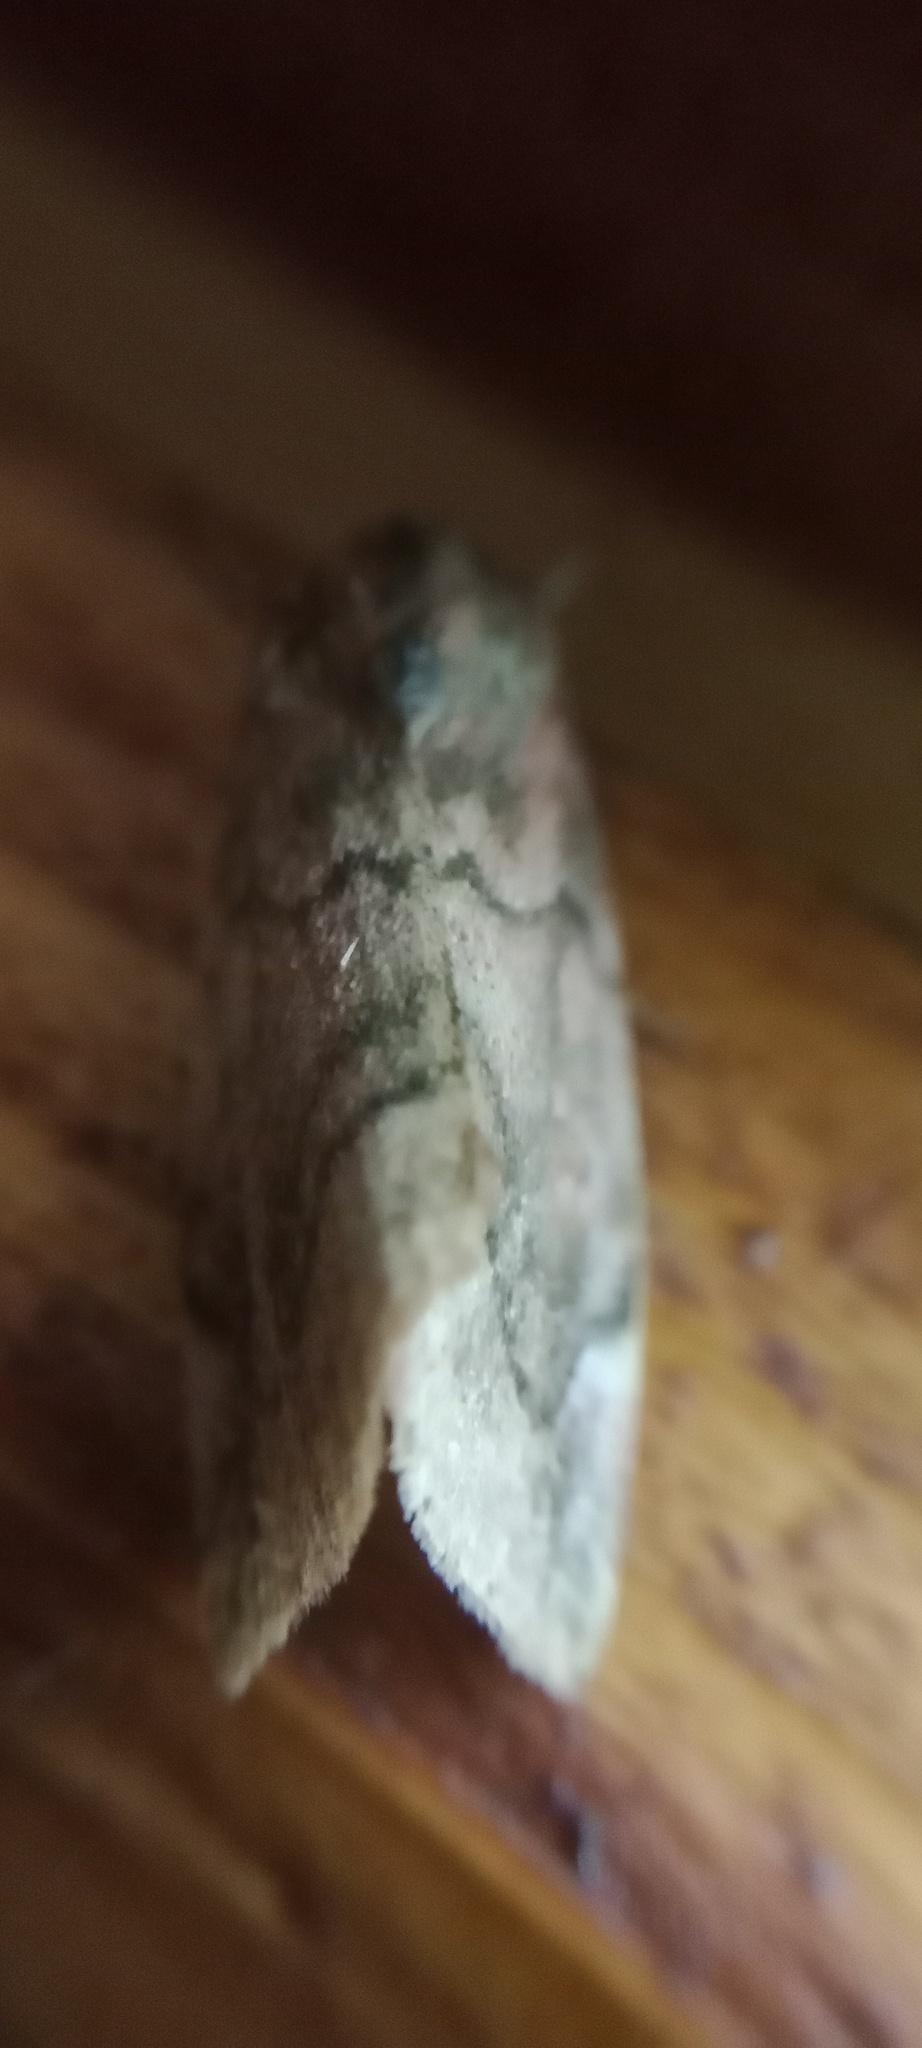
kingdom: Animalia
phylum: Arthropoda
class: Insecta
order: Lepidoptera
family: Noctuidae
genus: Cosmia
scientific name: Cosmia pyralina
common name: Lunar-spotted pinion
